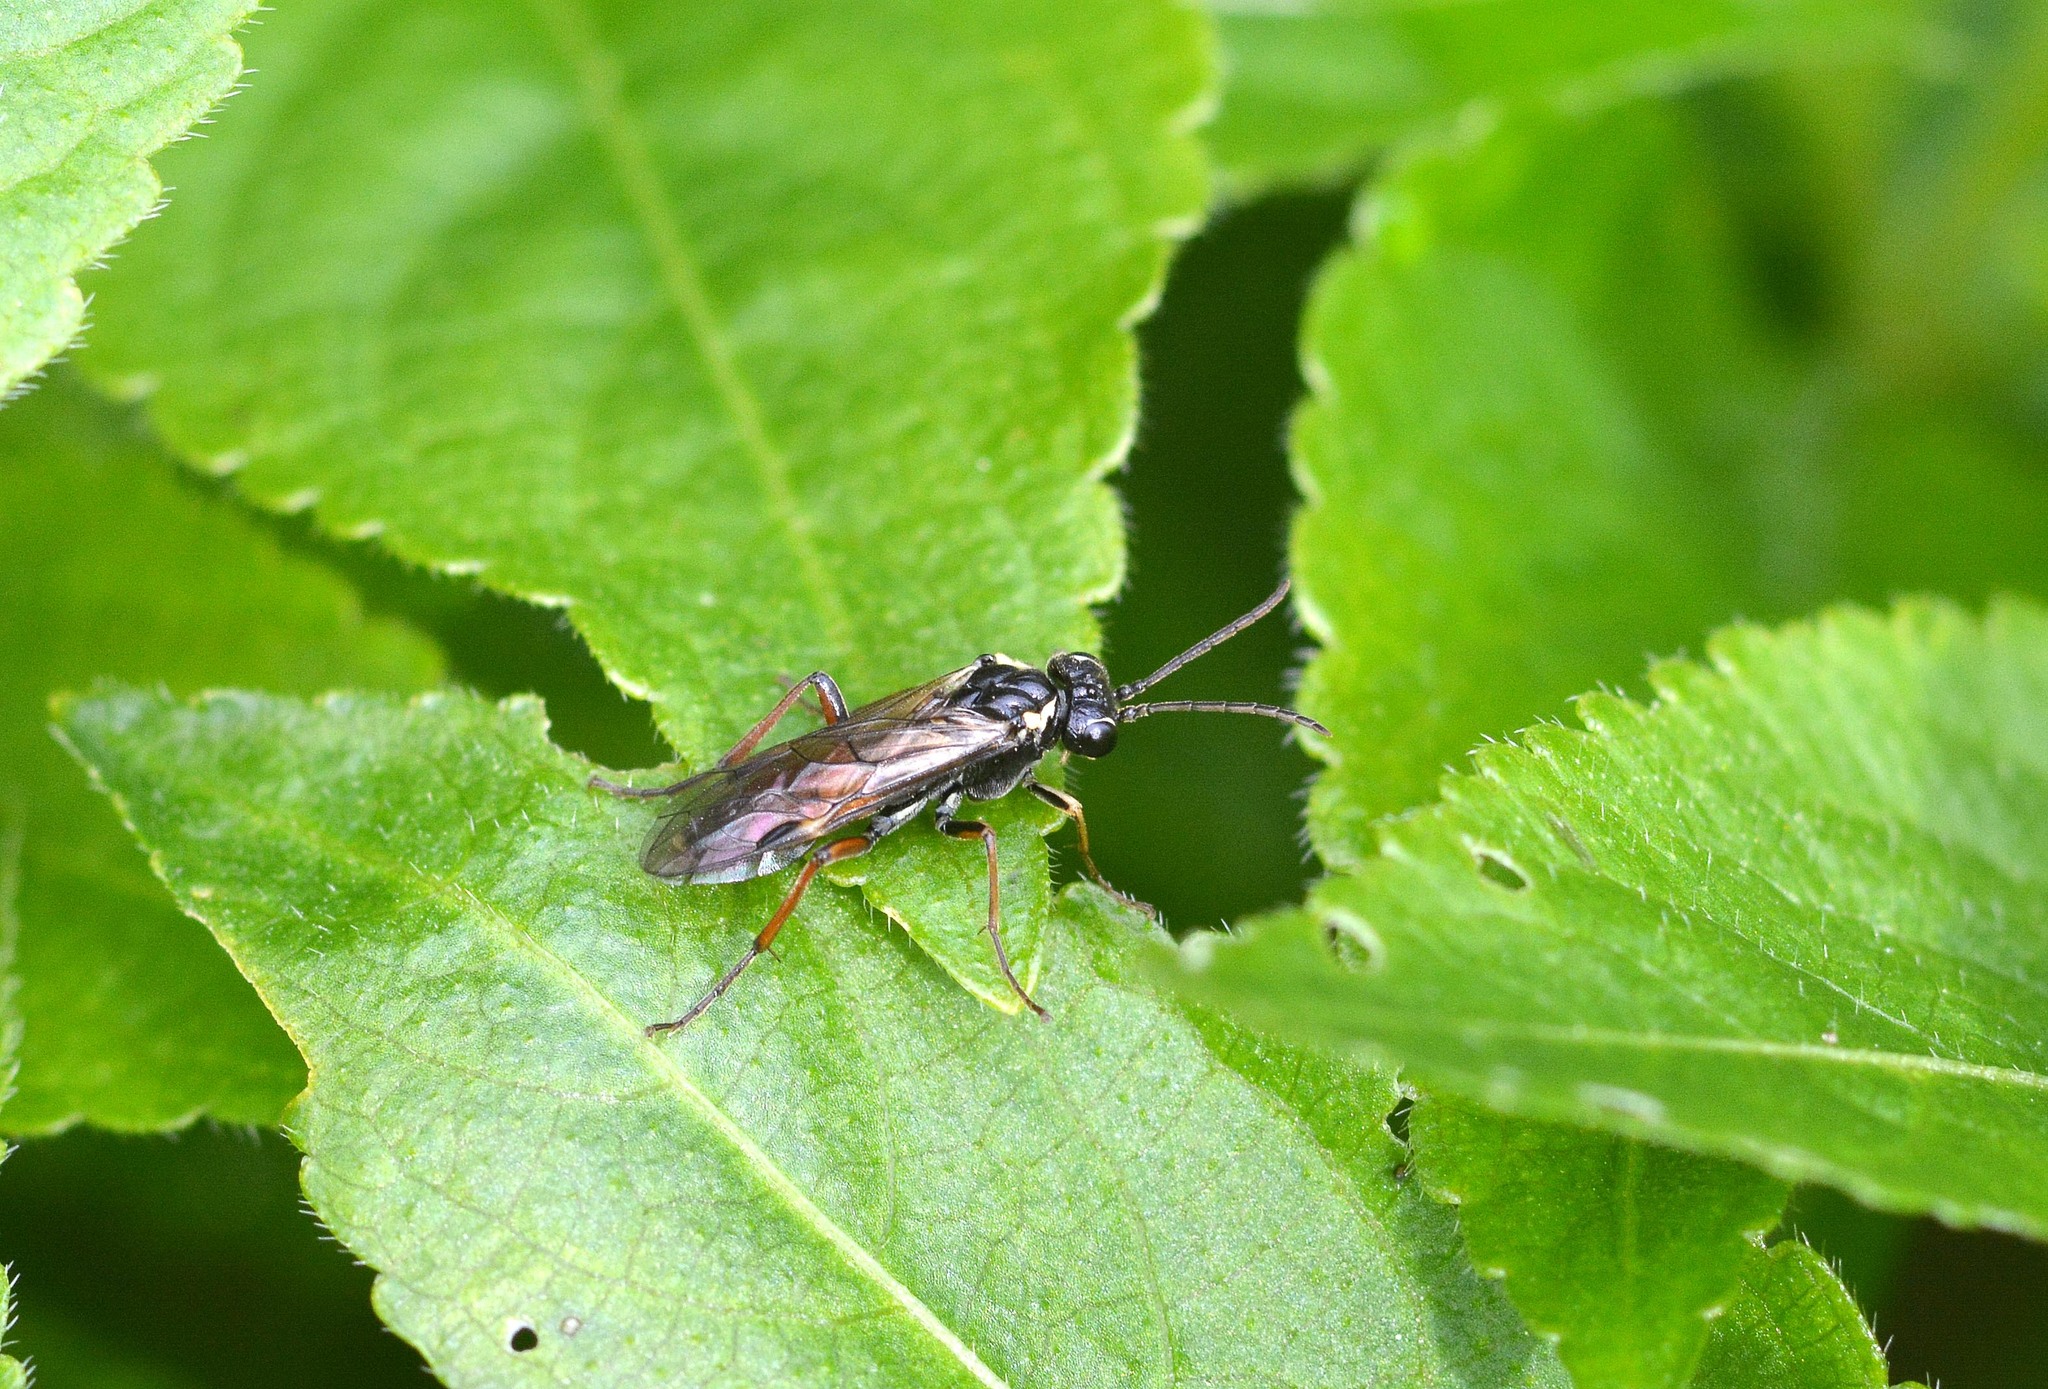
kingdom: Animalia
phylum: Arthropoda
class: Insecta
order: Hymenoptera
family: Tenthredinidae
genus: Aglaostigma
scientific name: Aglaostigma aucupariae
